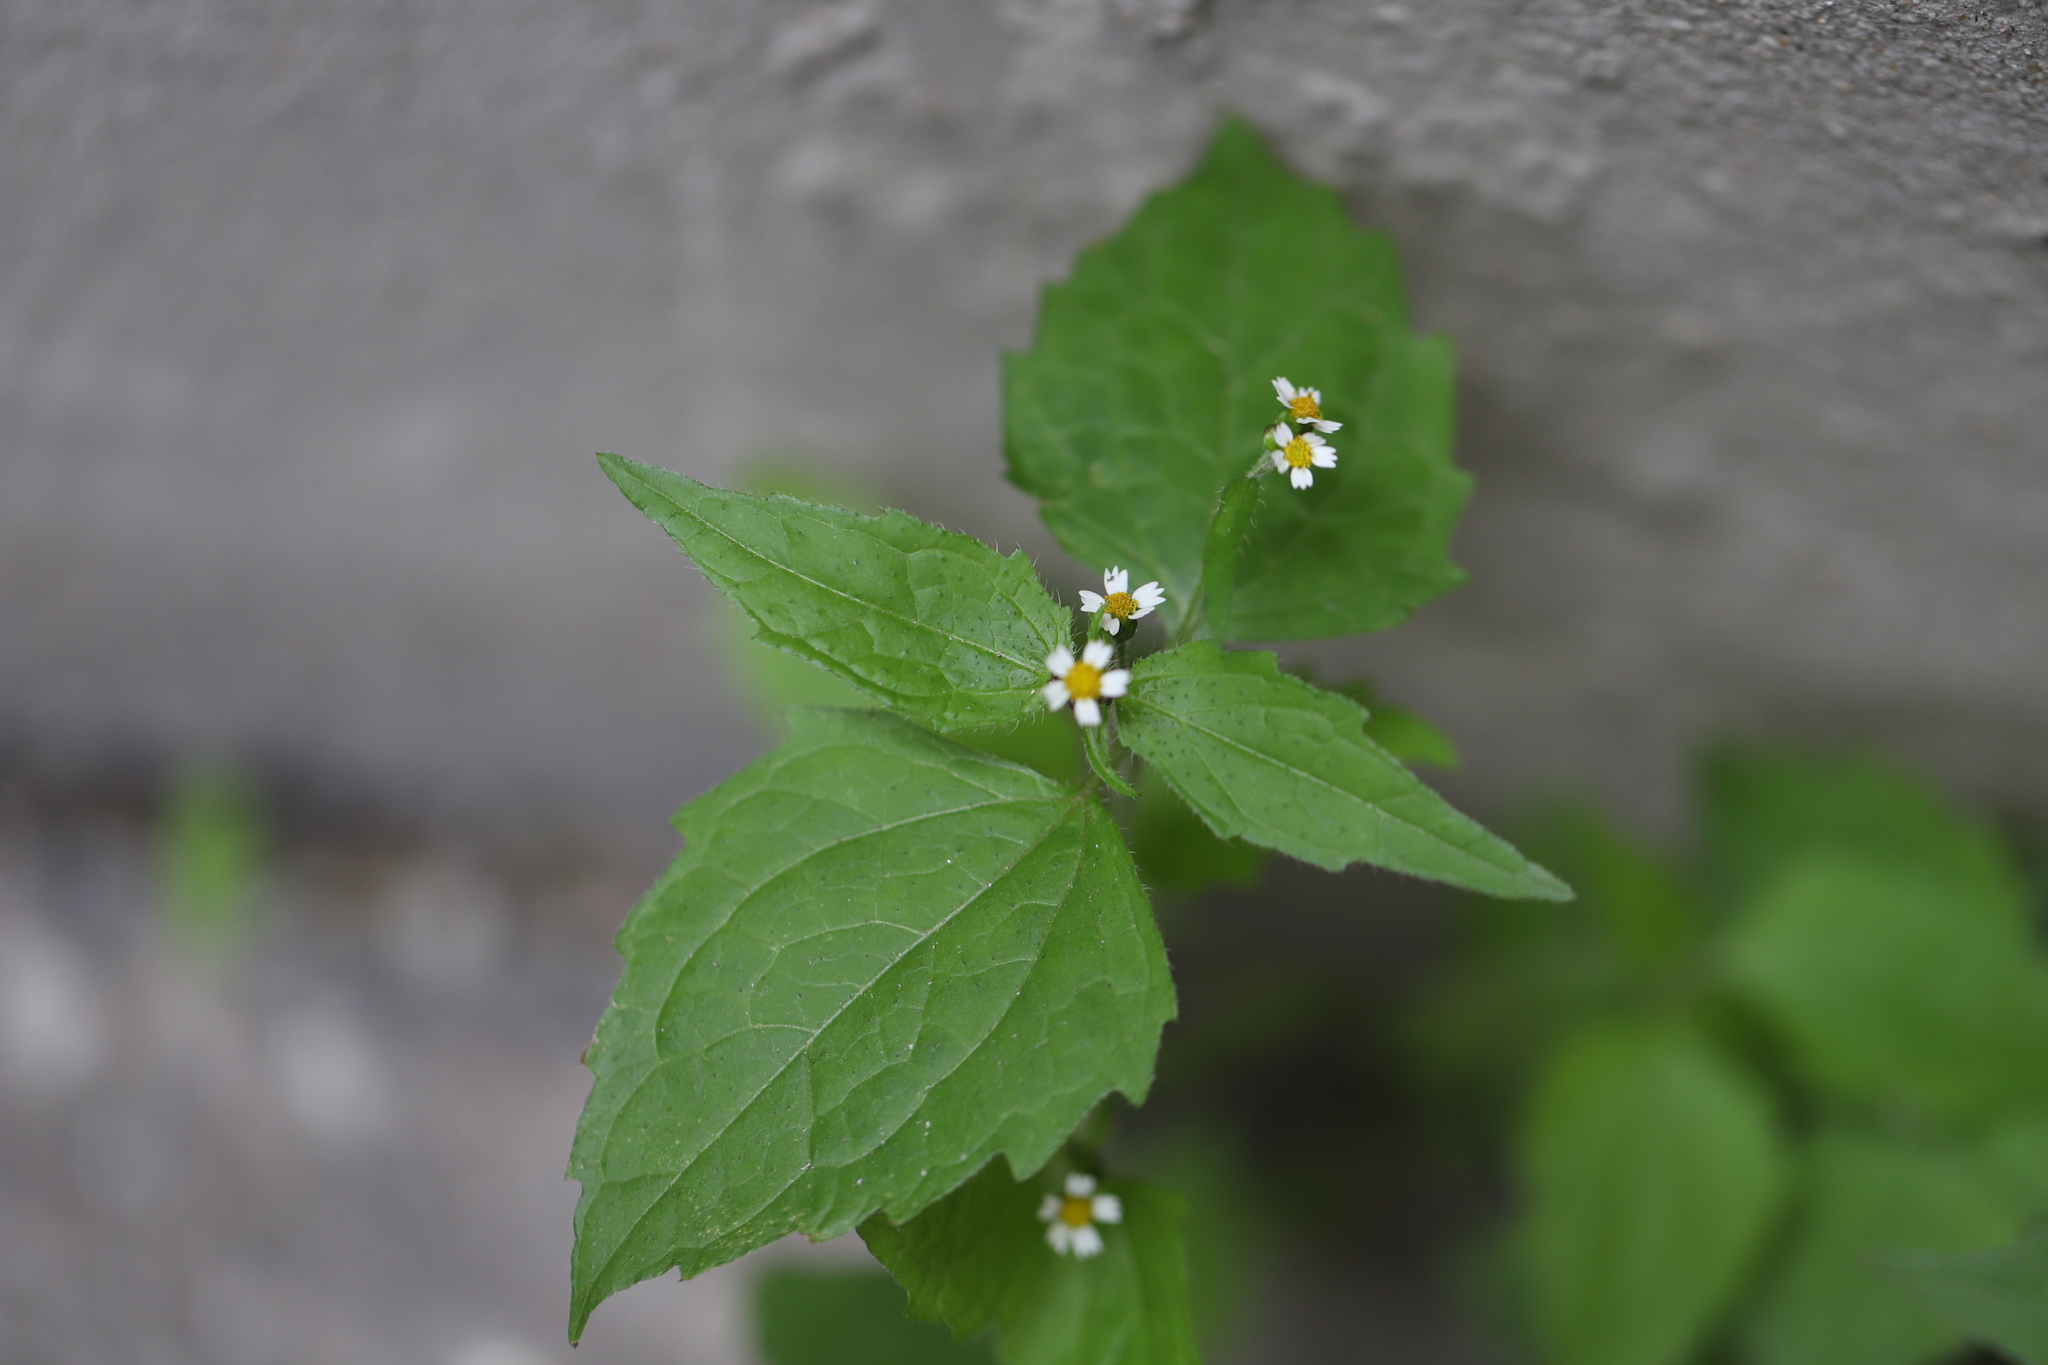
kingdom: Plantae
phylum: Tracheophyta
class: Magnoliopsida
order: Asterales
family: Asteraceae
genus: Galinsoga
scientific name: Galinsoga quadriradiata
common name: Shaggy soldier
